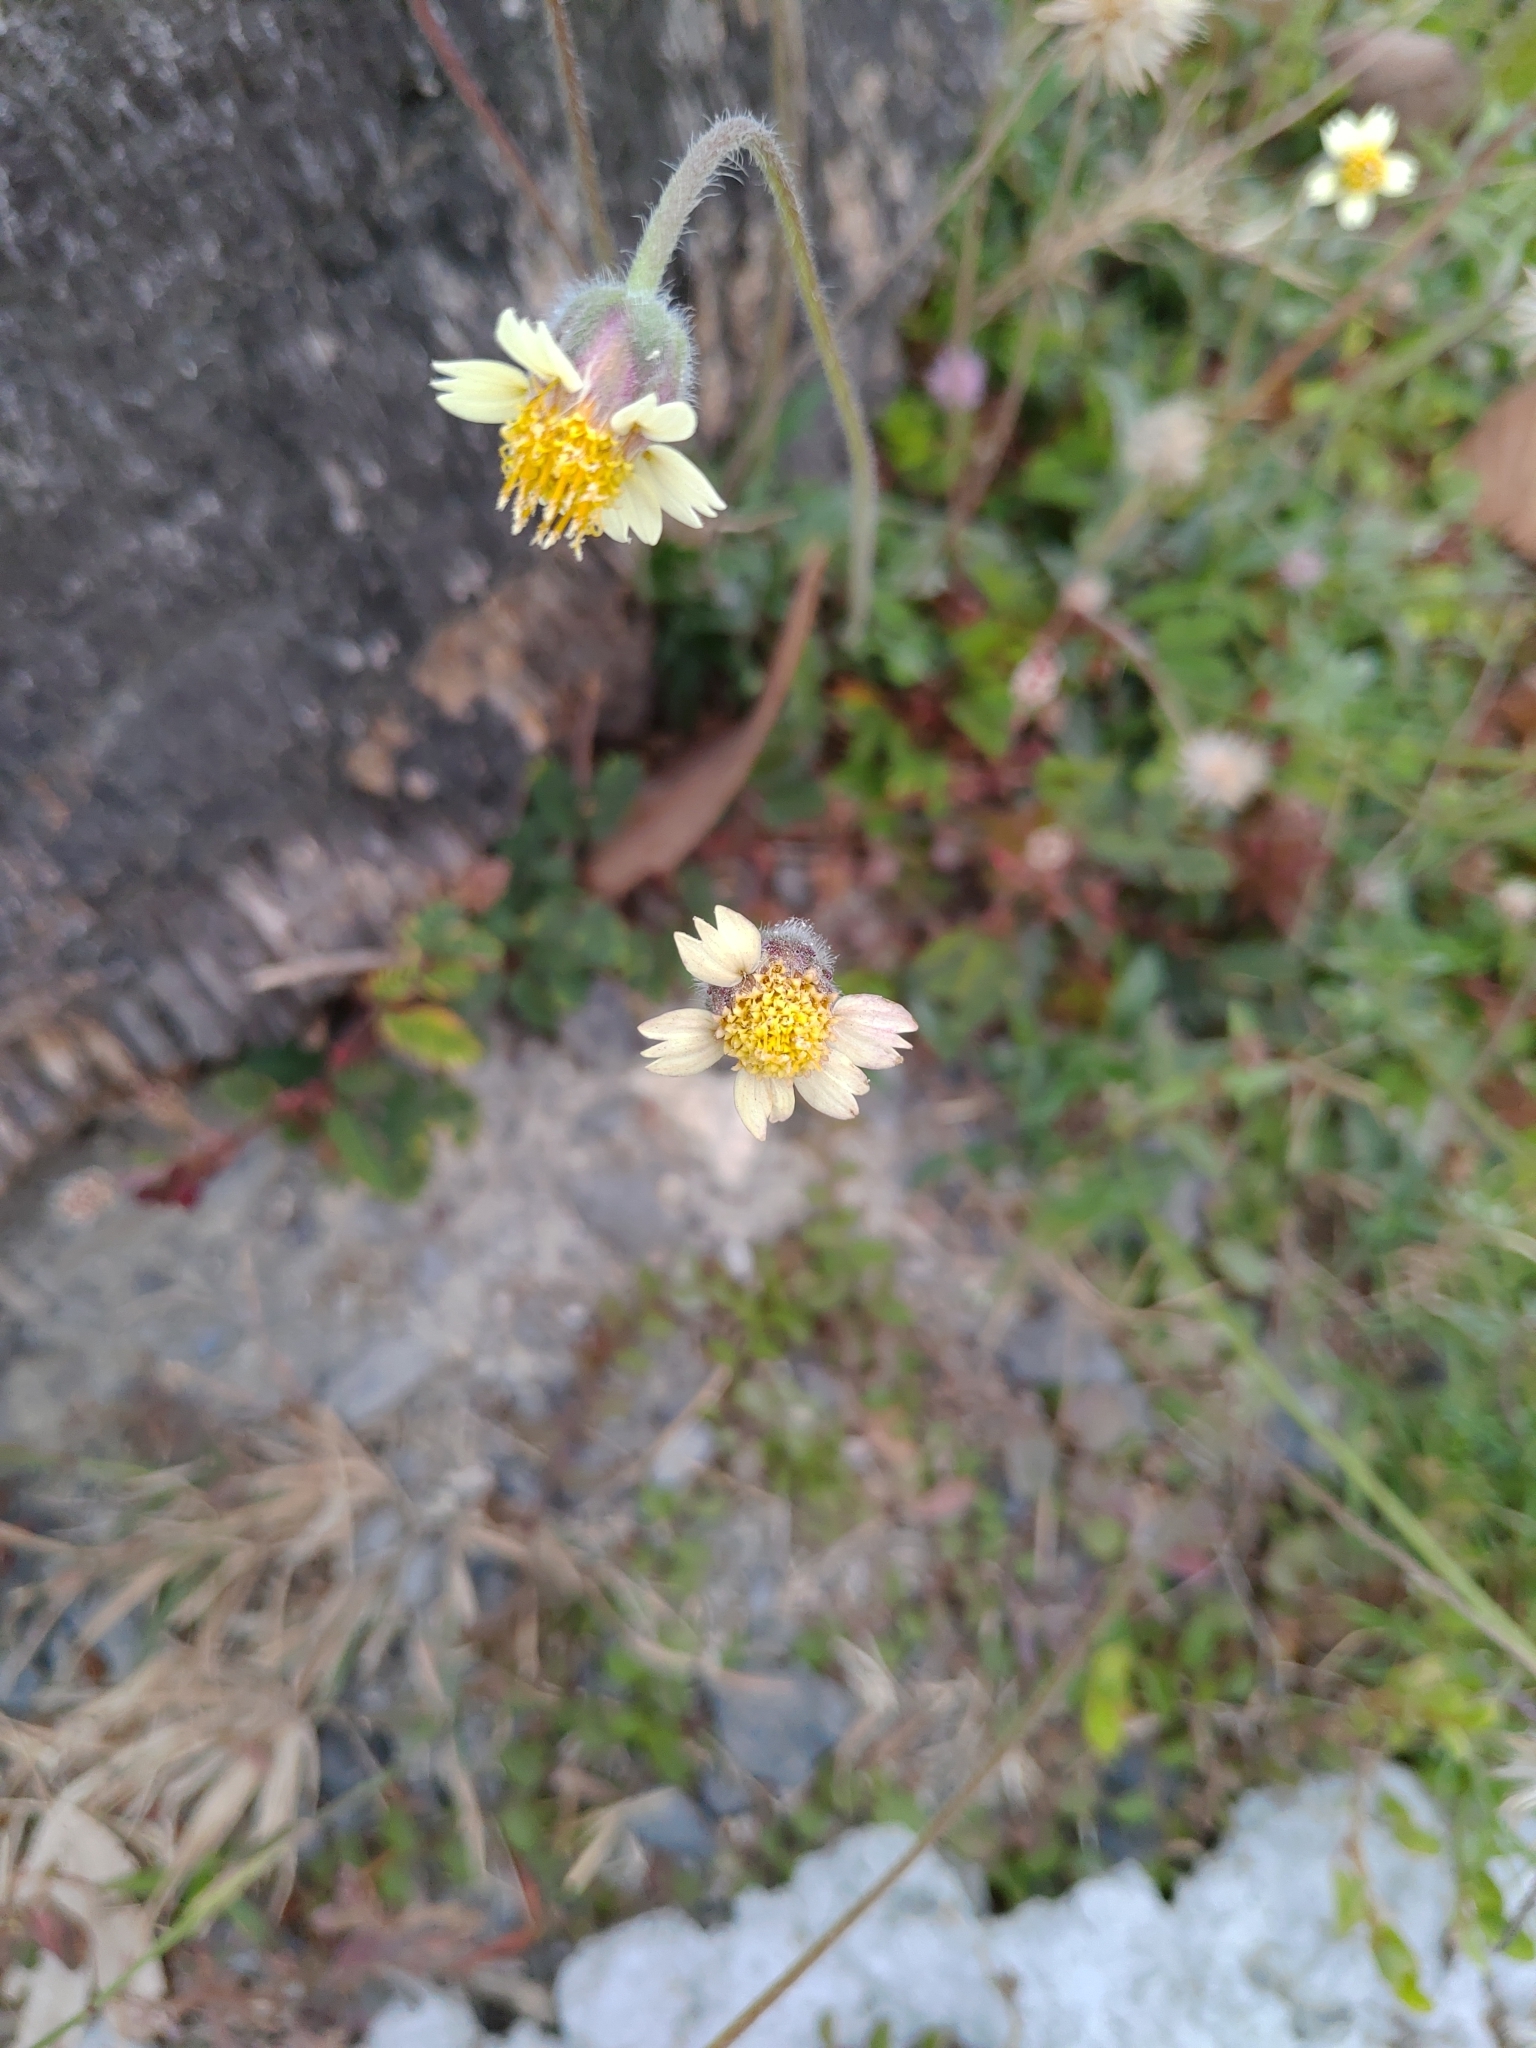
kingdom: Plantae
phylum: Tracheophyta
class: Magnoliopsida
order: Asterales
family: Asteraceae
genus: Tridax
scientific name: Tridax procumbens
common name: Coatbuttons
